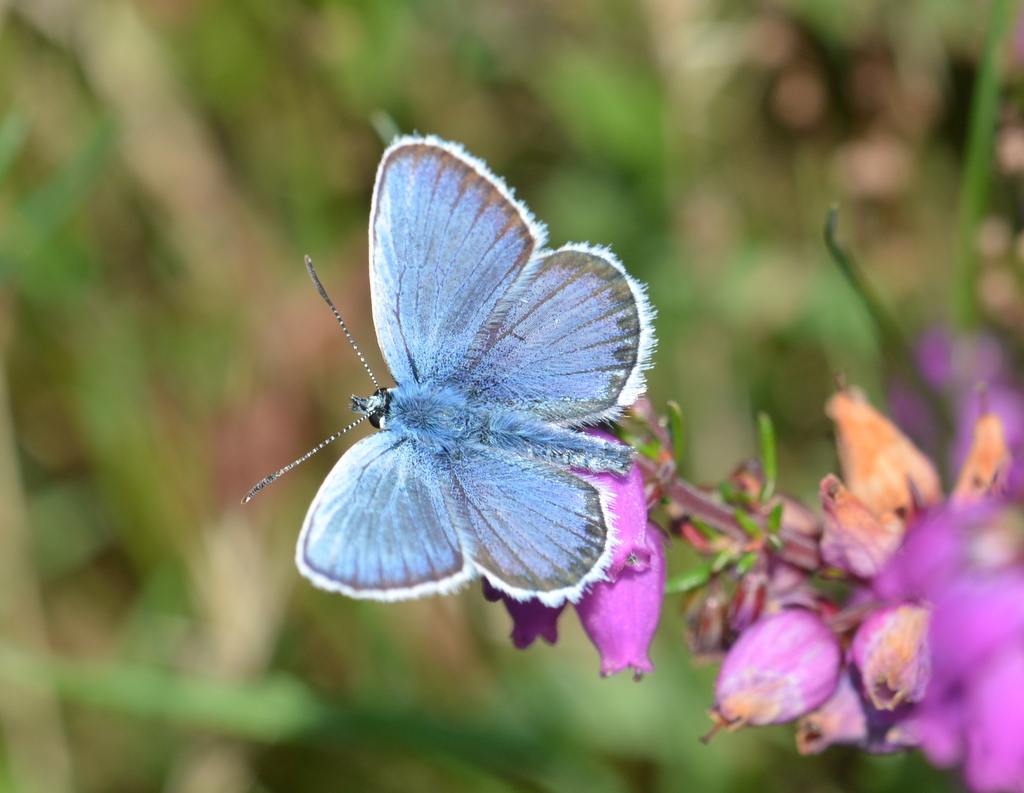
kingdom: Animalia
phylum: Arthropoda
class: Insecta
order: Lepidoptera
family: Lycaenidae
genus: Plebejus
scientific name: Plebejus argus
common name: Silver-studded blue
